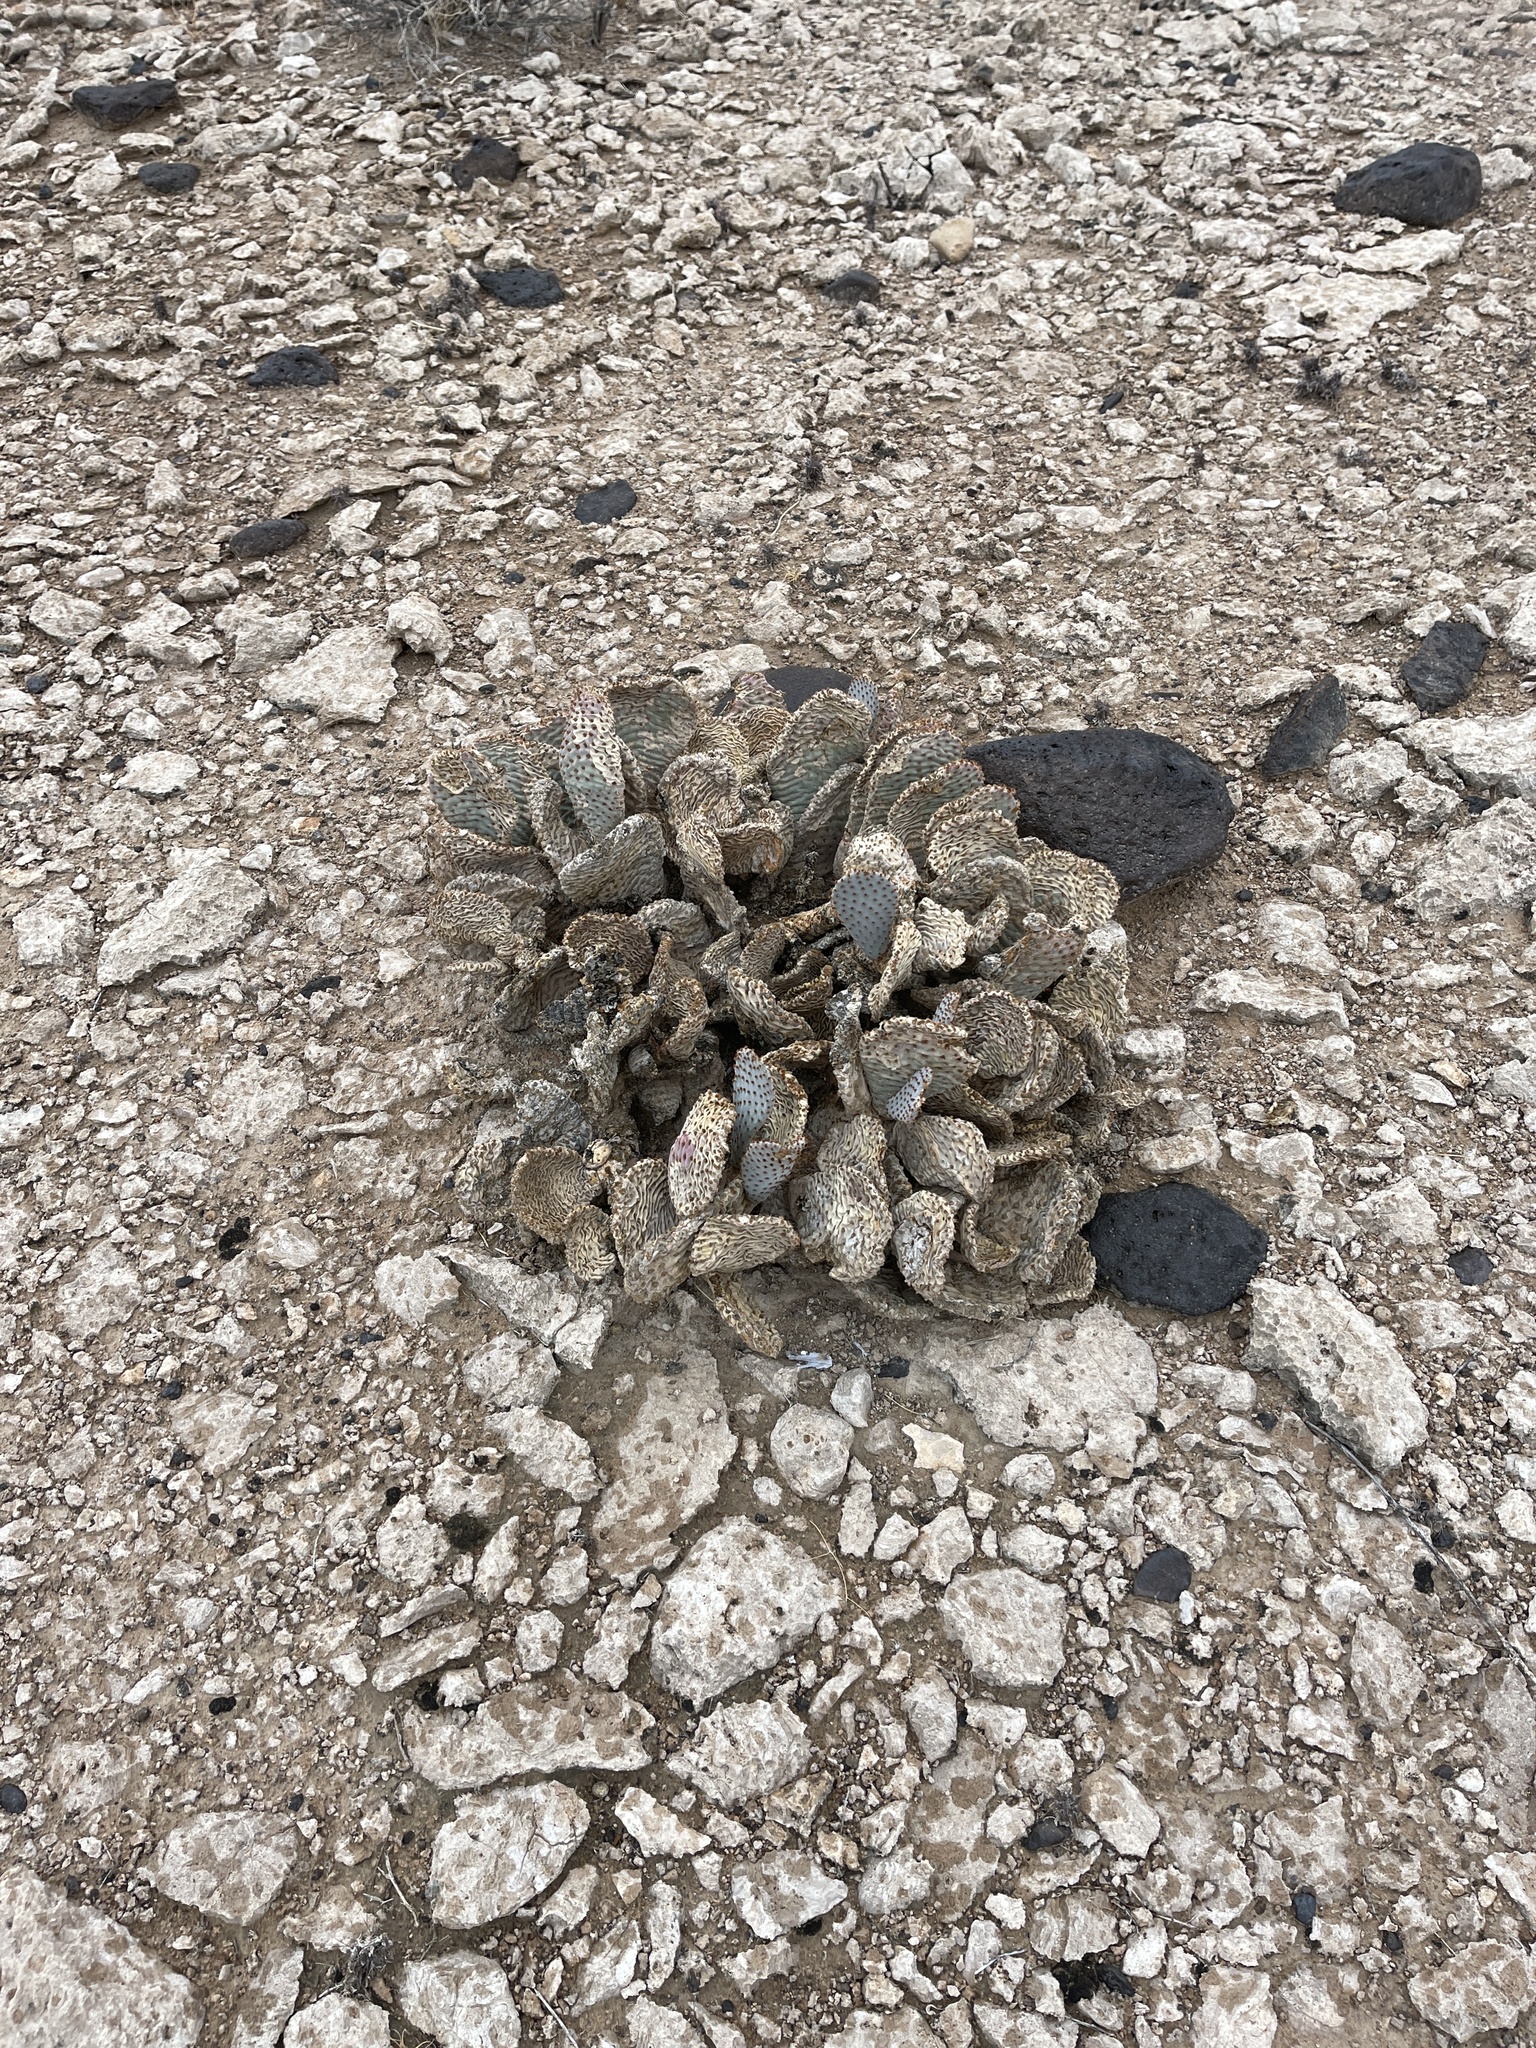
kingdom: Plantae
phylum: Tracheophyta
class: Magnoliopsida
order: Caryophyllales
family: Cactaceae
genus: Opuntia
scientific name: Opuntia basilaris
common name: Beavertail prickly-pear
